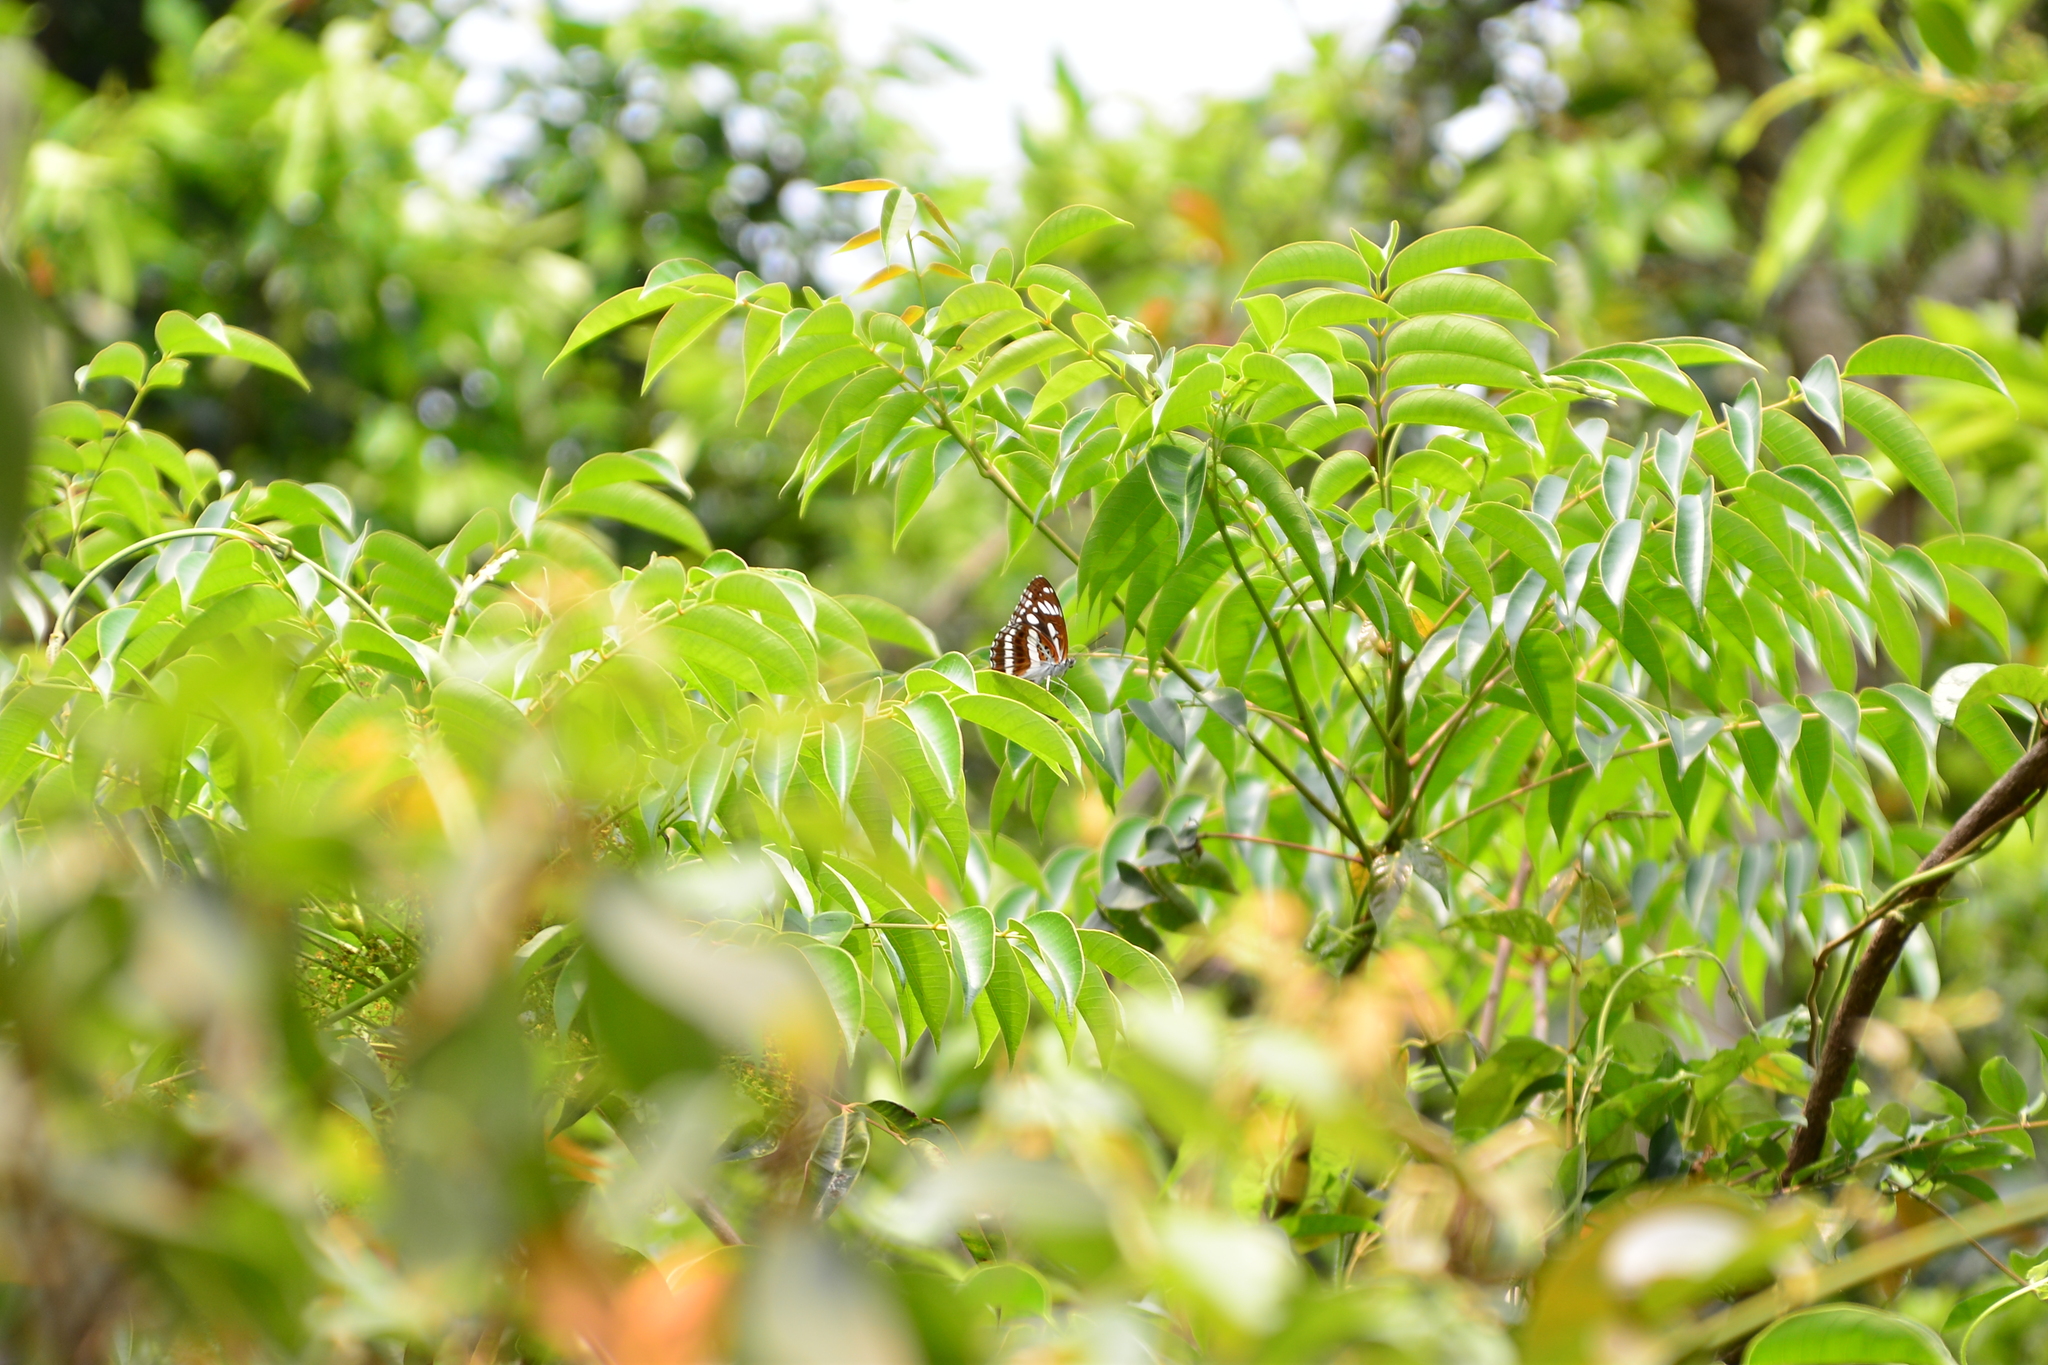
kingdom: Animalia
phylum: Arthropoda
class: Insecta
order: Lepidoptera
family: Nymphalidae
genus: Limenitis
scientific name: Limenitis sulpitia
